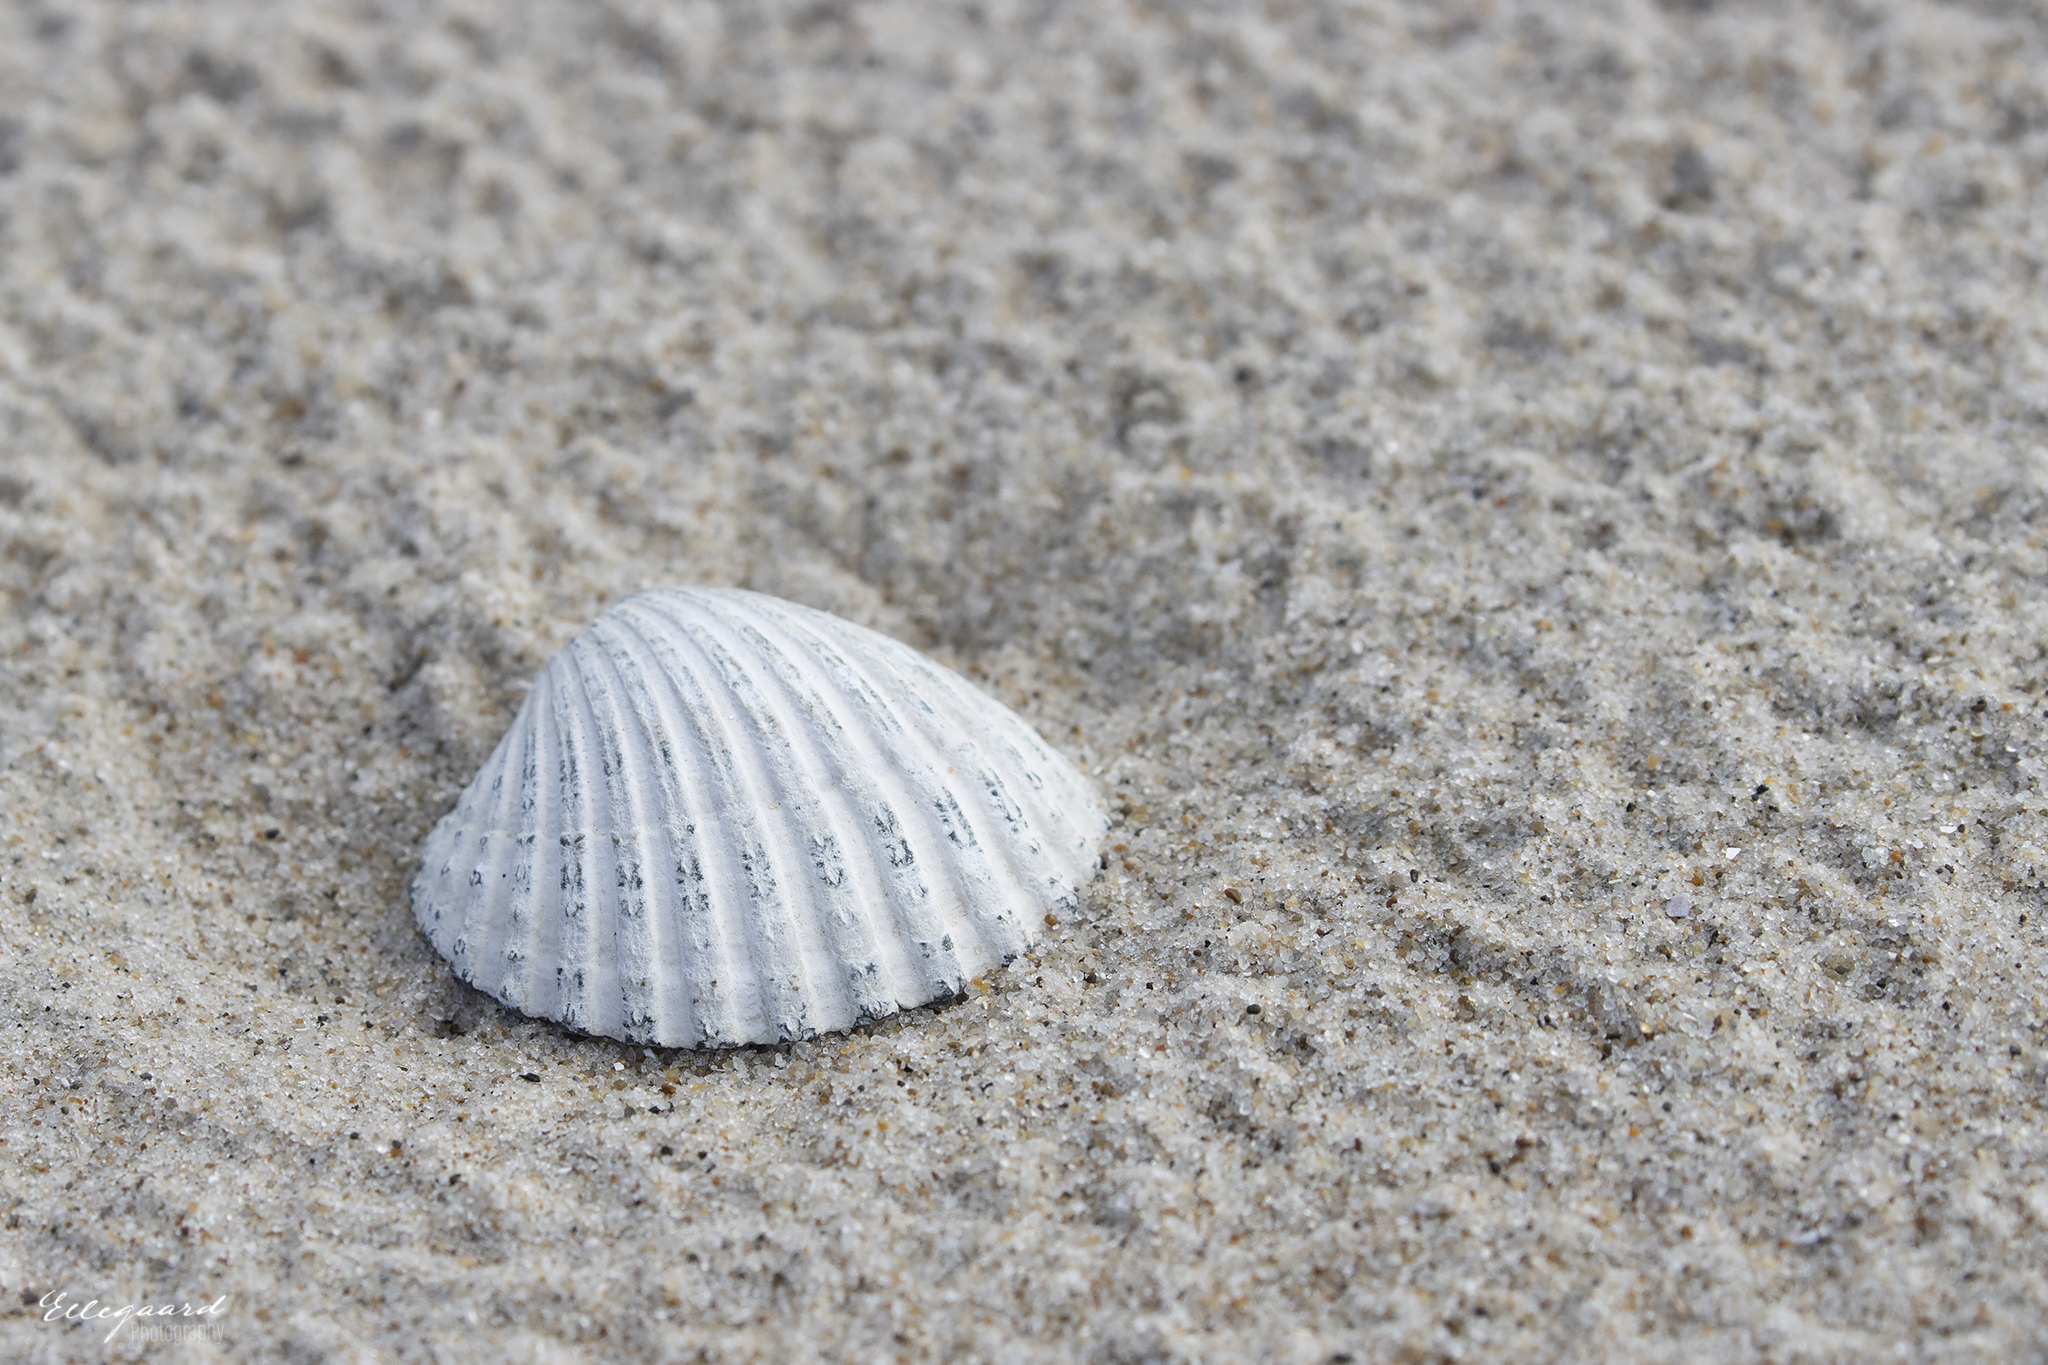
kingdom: Animalia
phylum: Mollusca
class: Bivalvia
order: Cardiida
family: Cardiidae
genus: Acanthocardia
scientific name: Acanthocardia echinata
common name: Prickly cockle
